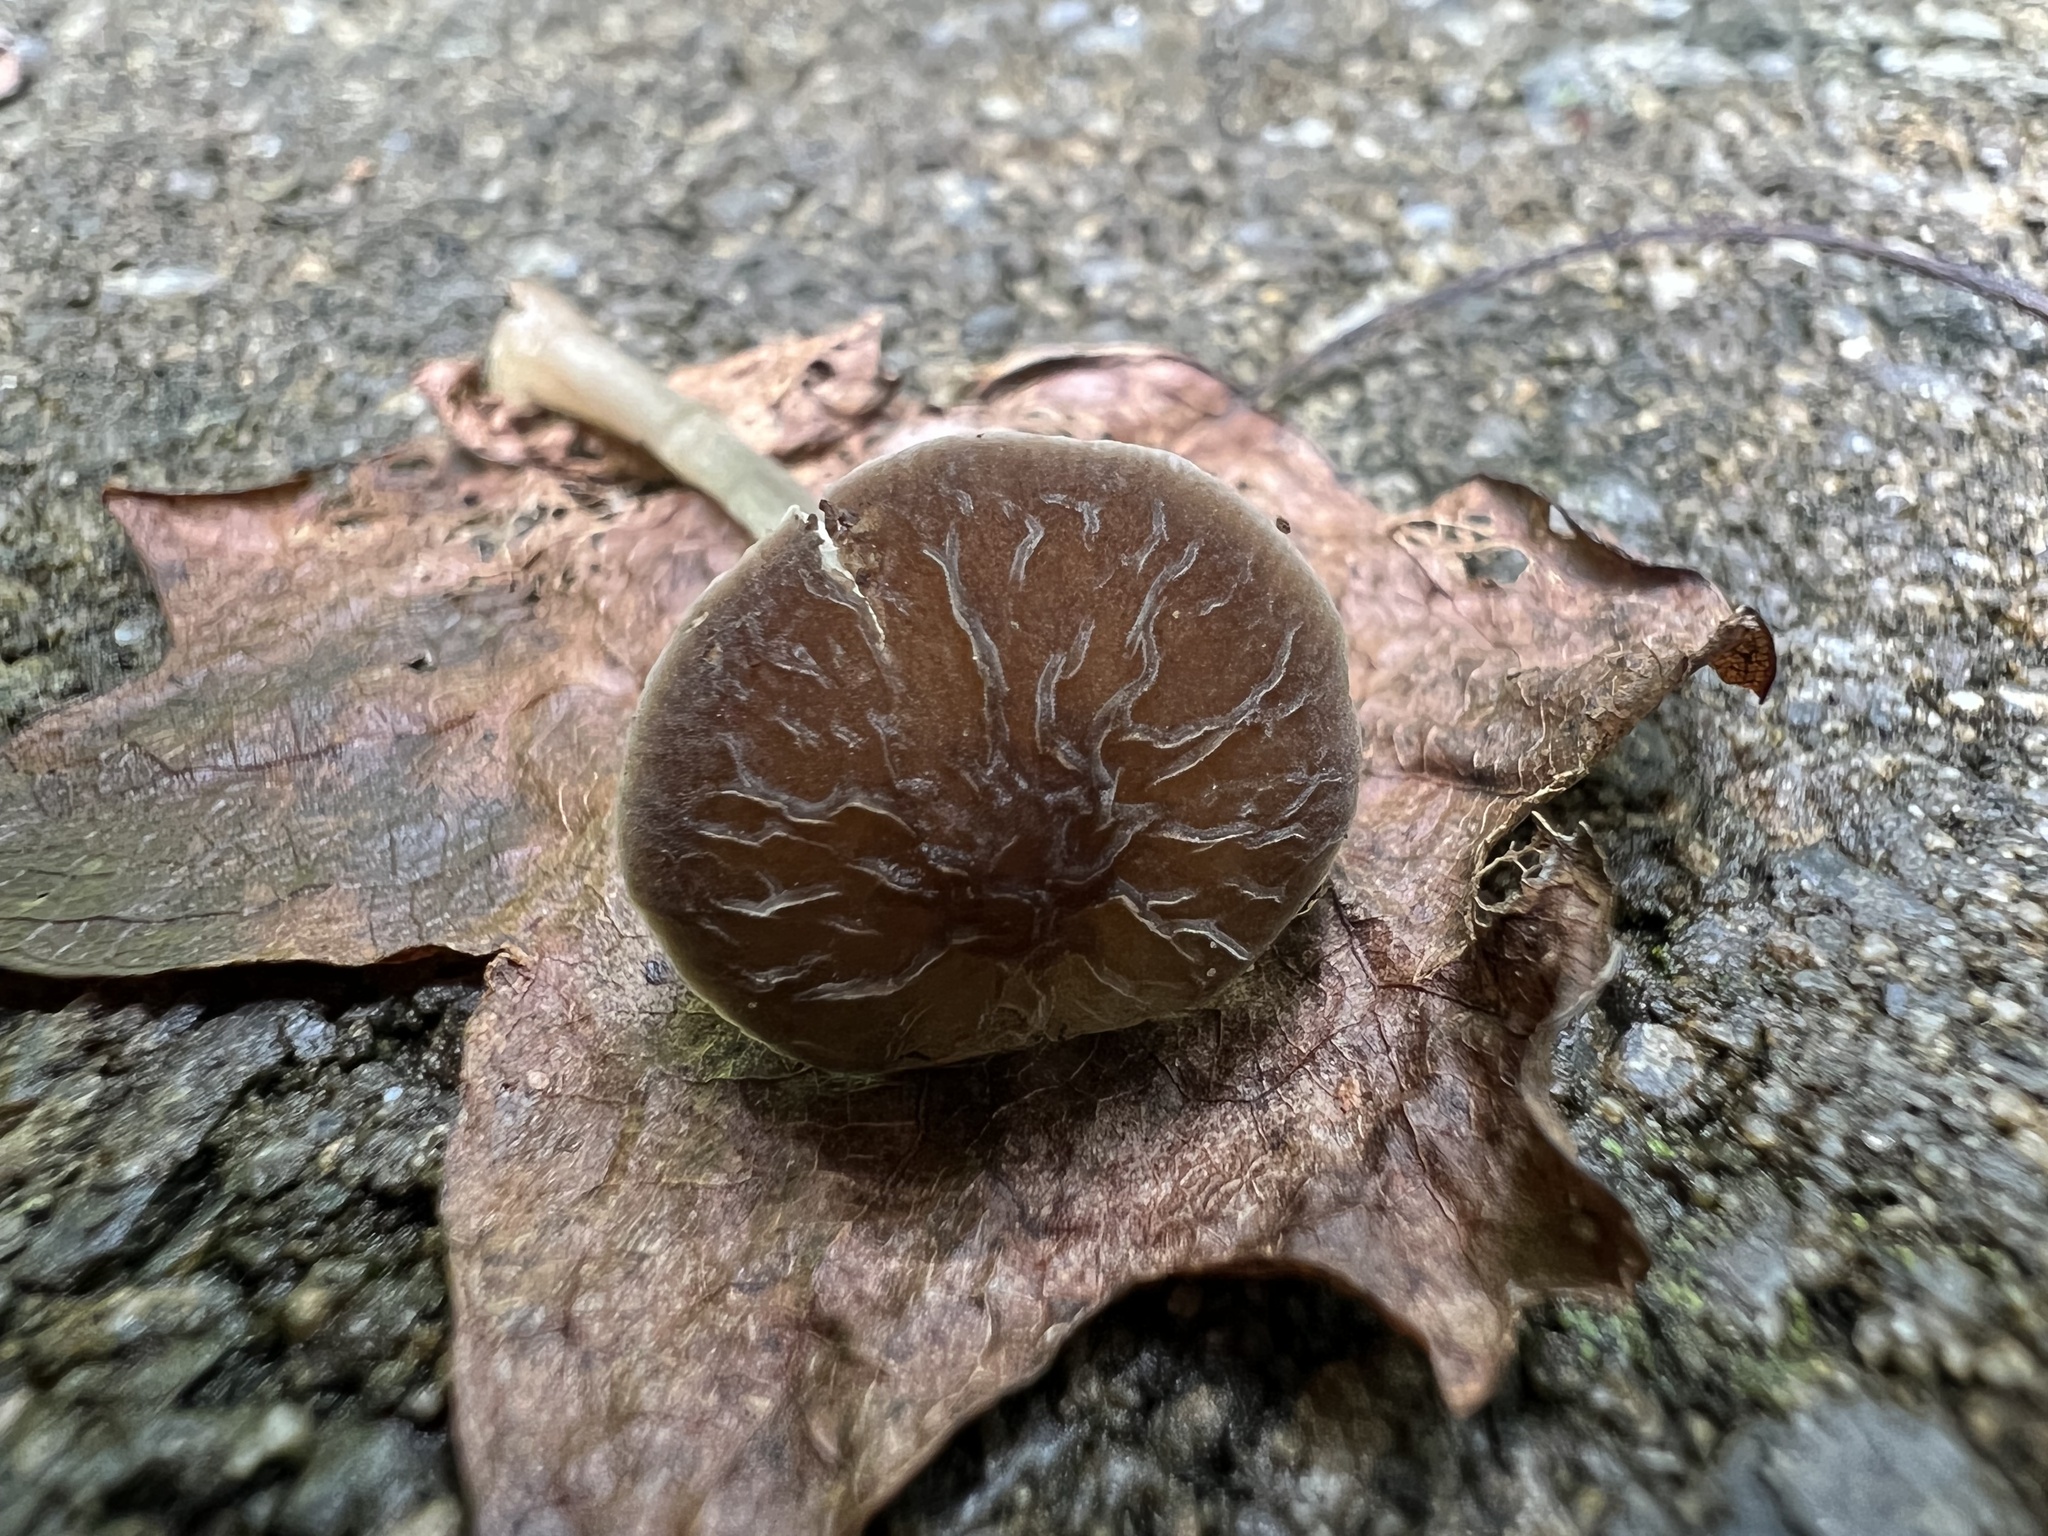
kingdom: Fungi
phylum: Basidiomycota
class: Agaricomycetes
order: Agaricales
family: Pluteaceae
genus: Pluteus
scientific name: Pluteus thomsonii
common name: Veined shield
